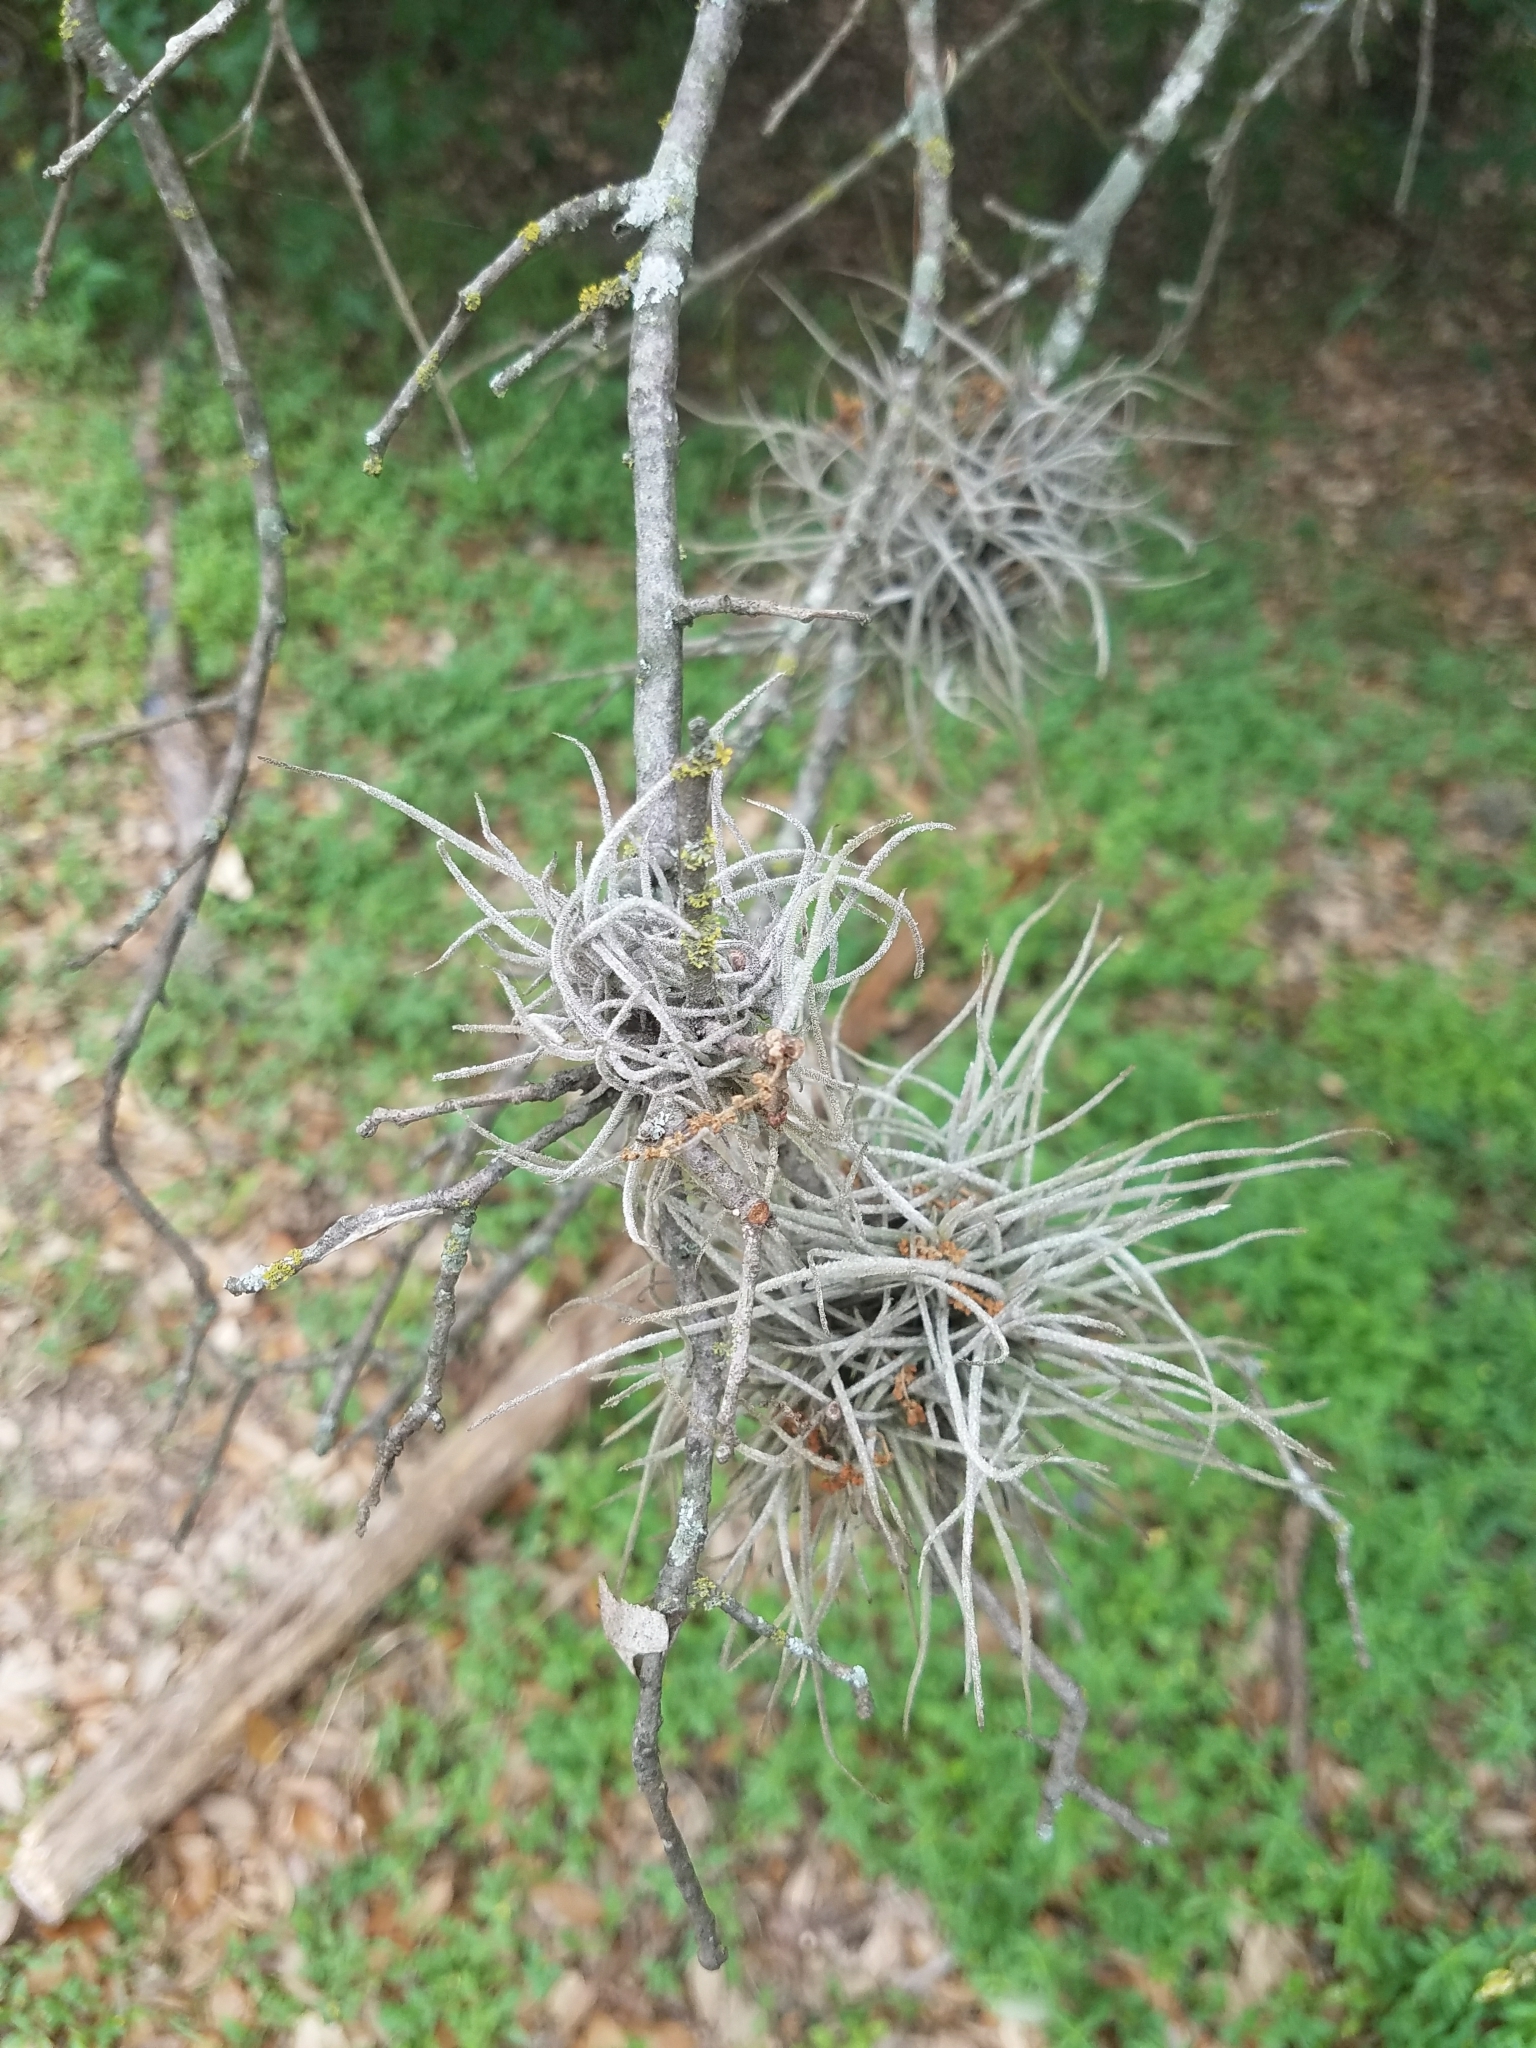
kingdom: Plantae
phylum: Tracheophyta
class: Liliopsida
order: Poales
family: Bromeliaceae
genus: Tillandsia
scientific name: Tillandsia recurvata
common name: Small ballmoss
